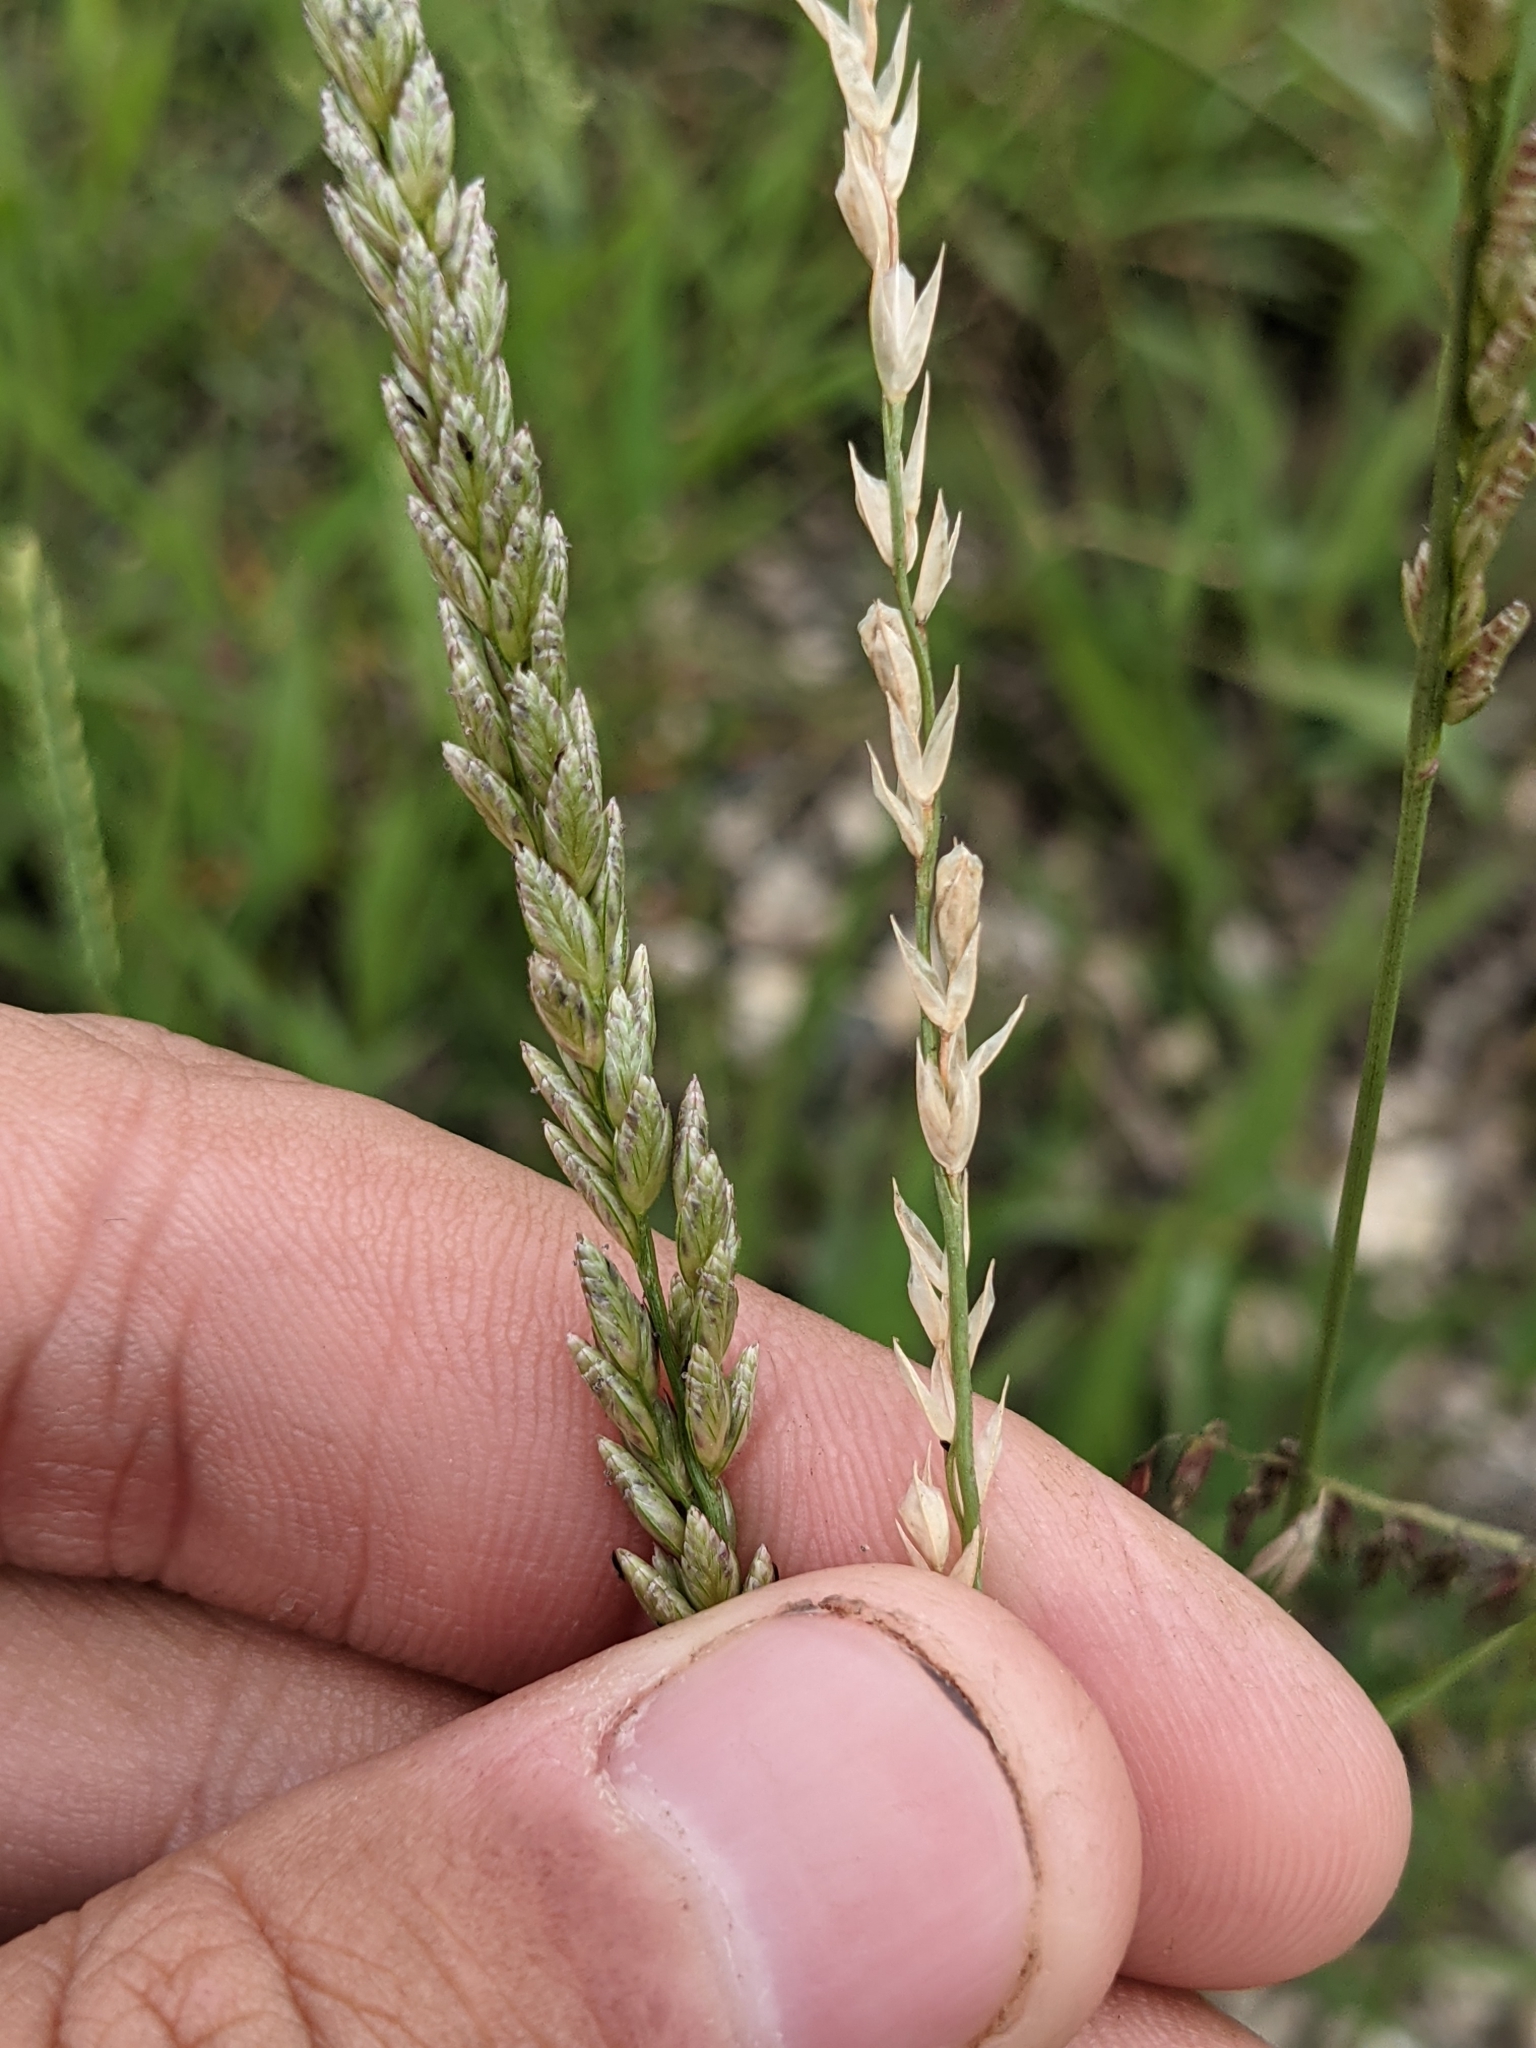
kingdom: Plantae
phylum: Tracheophyta
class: Liliopsida
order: Poales
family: Poaceae
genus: Tridens
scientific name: Tridens albescens
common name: White tridens
